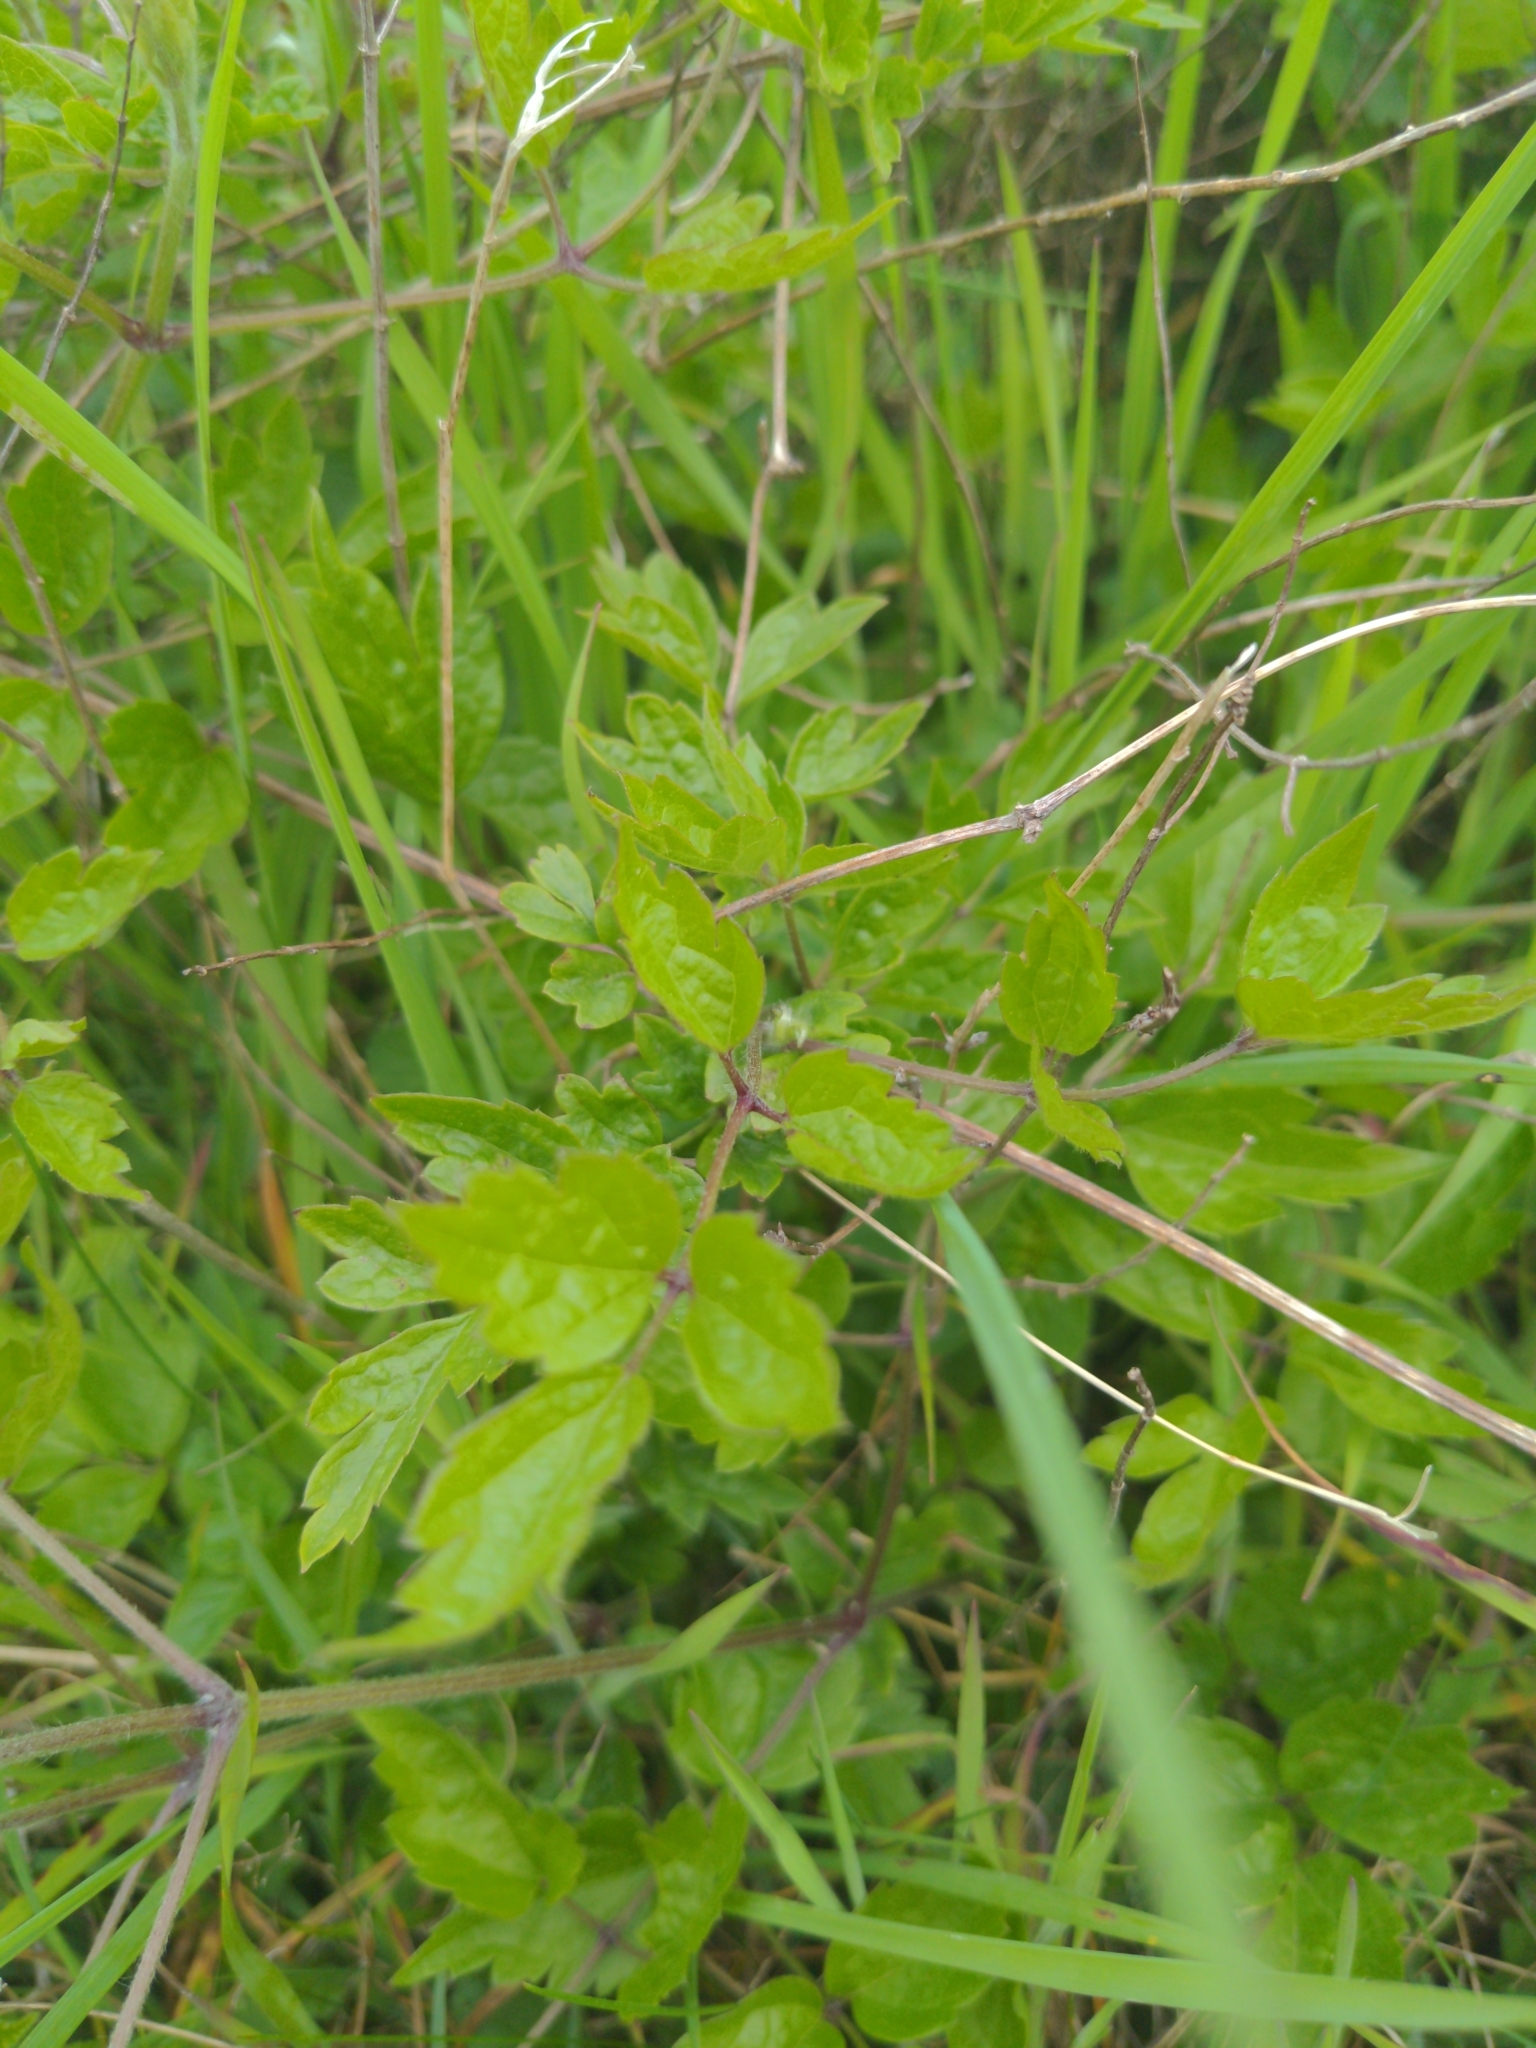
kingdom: Plantae
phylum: Tracheophyta
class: Magnoliopsida
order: Ranunculales
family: Ranunculaceae
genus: Clematis
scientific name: Clematis vitalba
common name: Evergreen clematis
